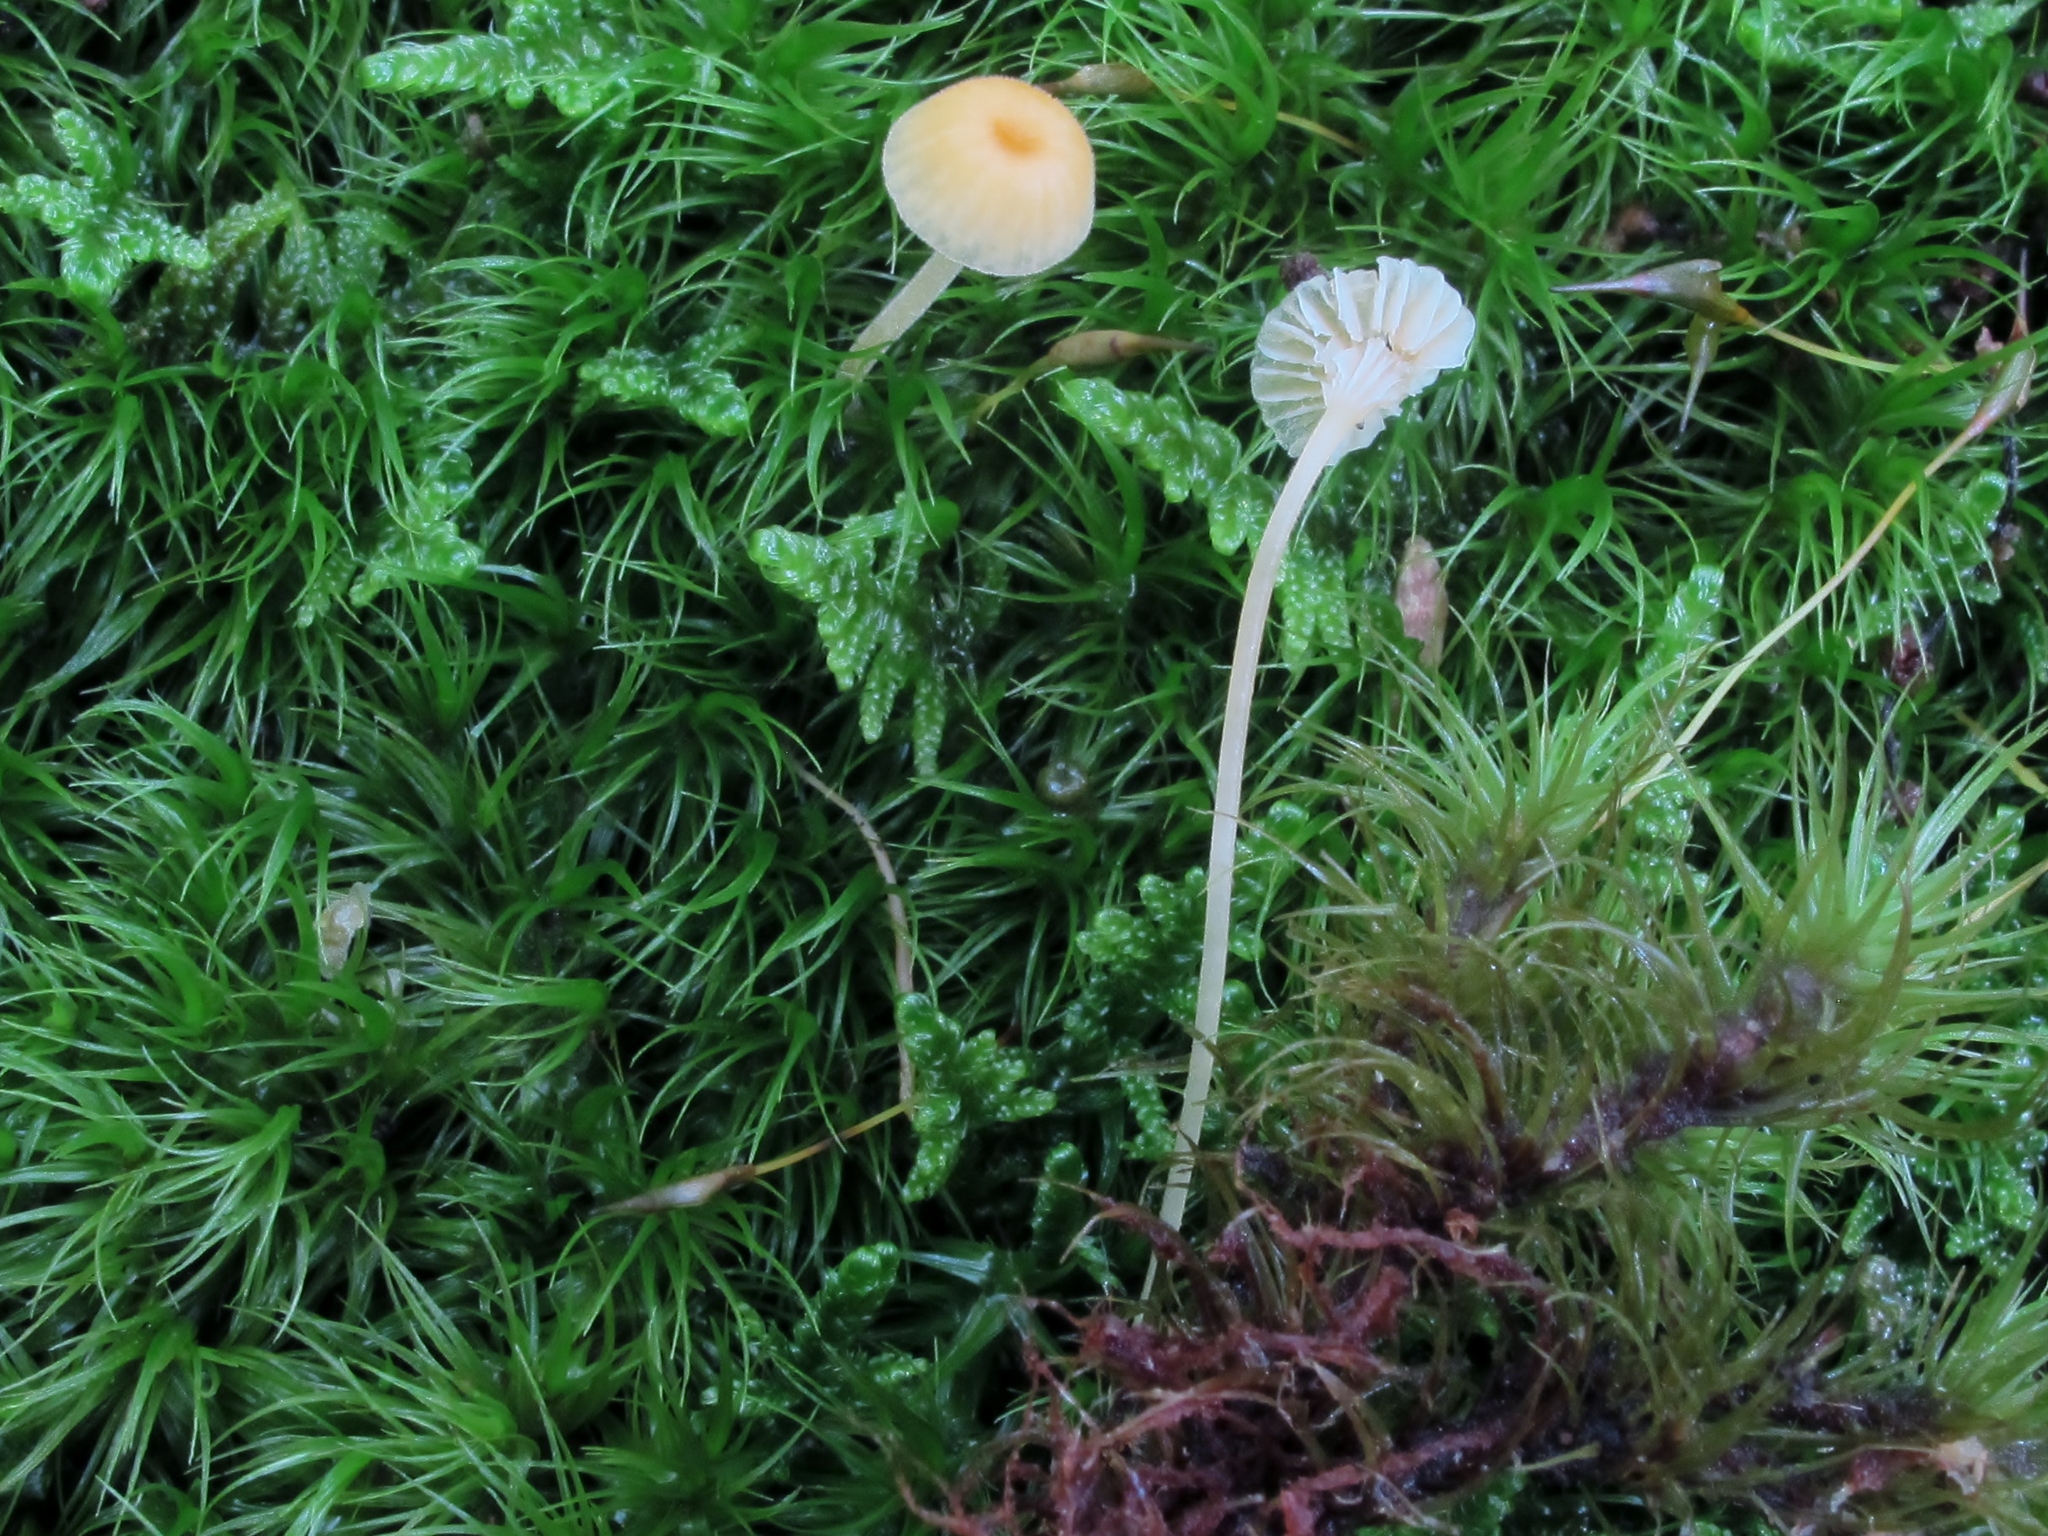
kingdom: Fungi
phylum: Basidiomycota
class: Agaricomycetes
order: Hymenochaetales
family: Rickenellaceae
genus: Rickenella
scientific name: Rickenella fibula
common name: Orange mosscap
